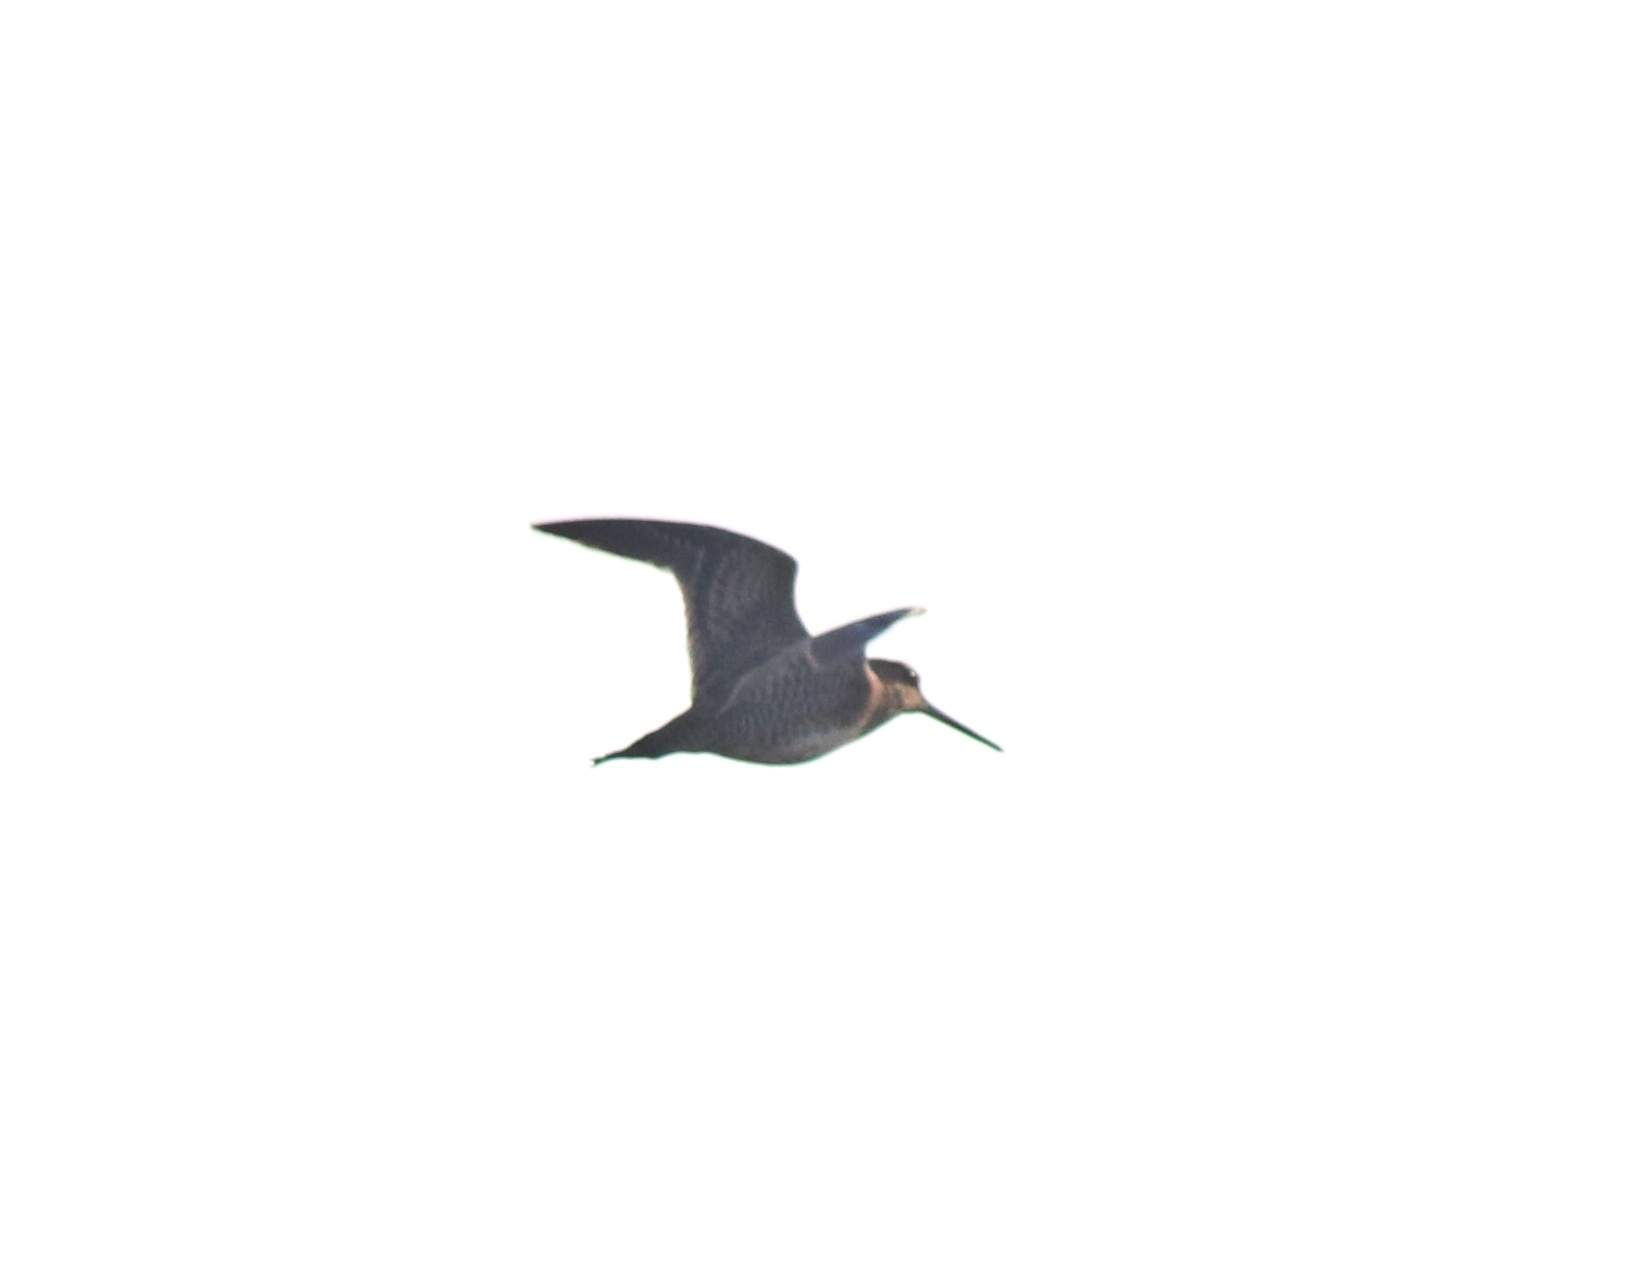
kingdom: Animalia
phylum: Chordata
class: Aves
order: Charadriiformes
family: Scolopacidae
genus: Gallinago
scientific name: Gallinago stenura
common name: Pin-tailed snipe
